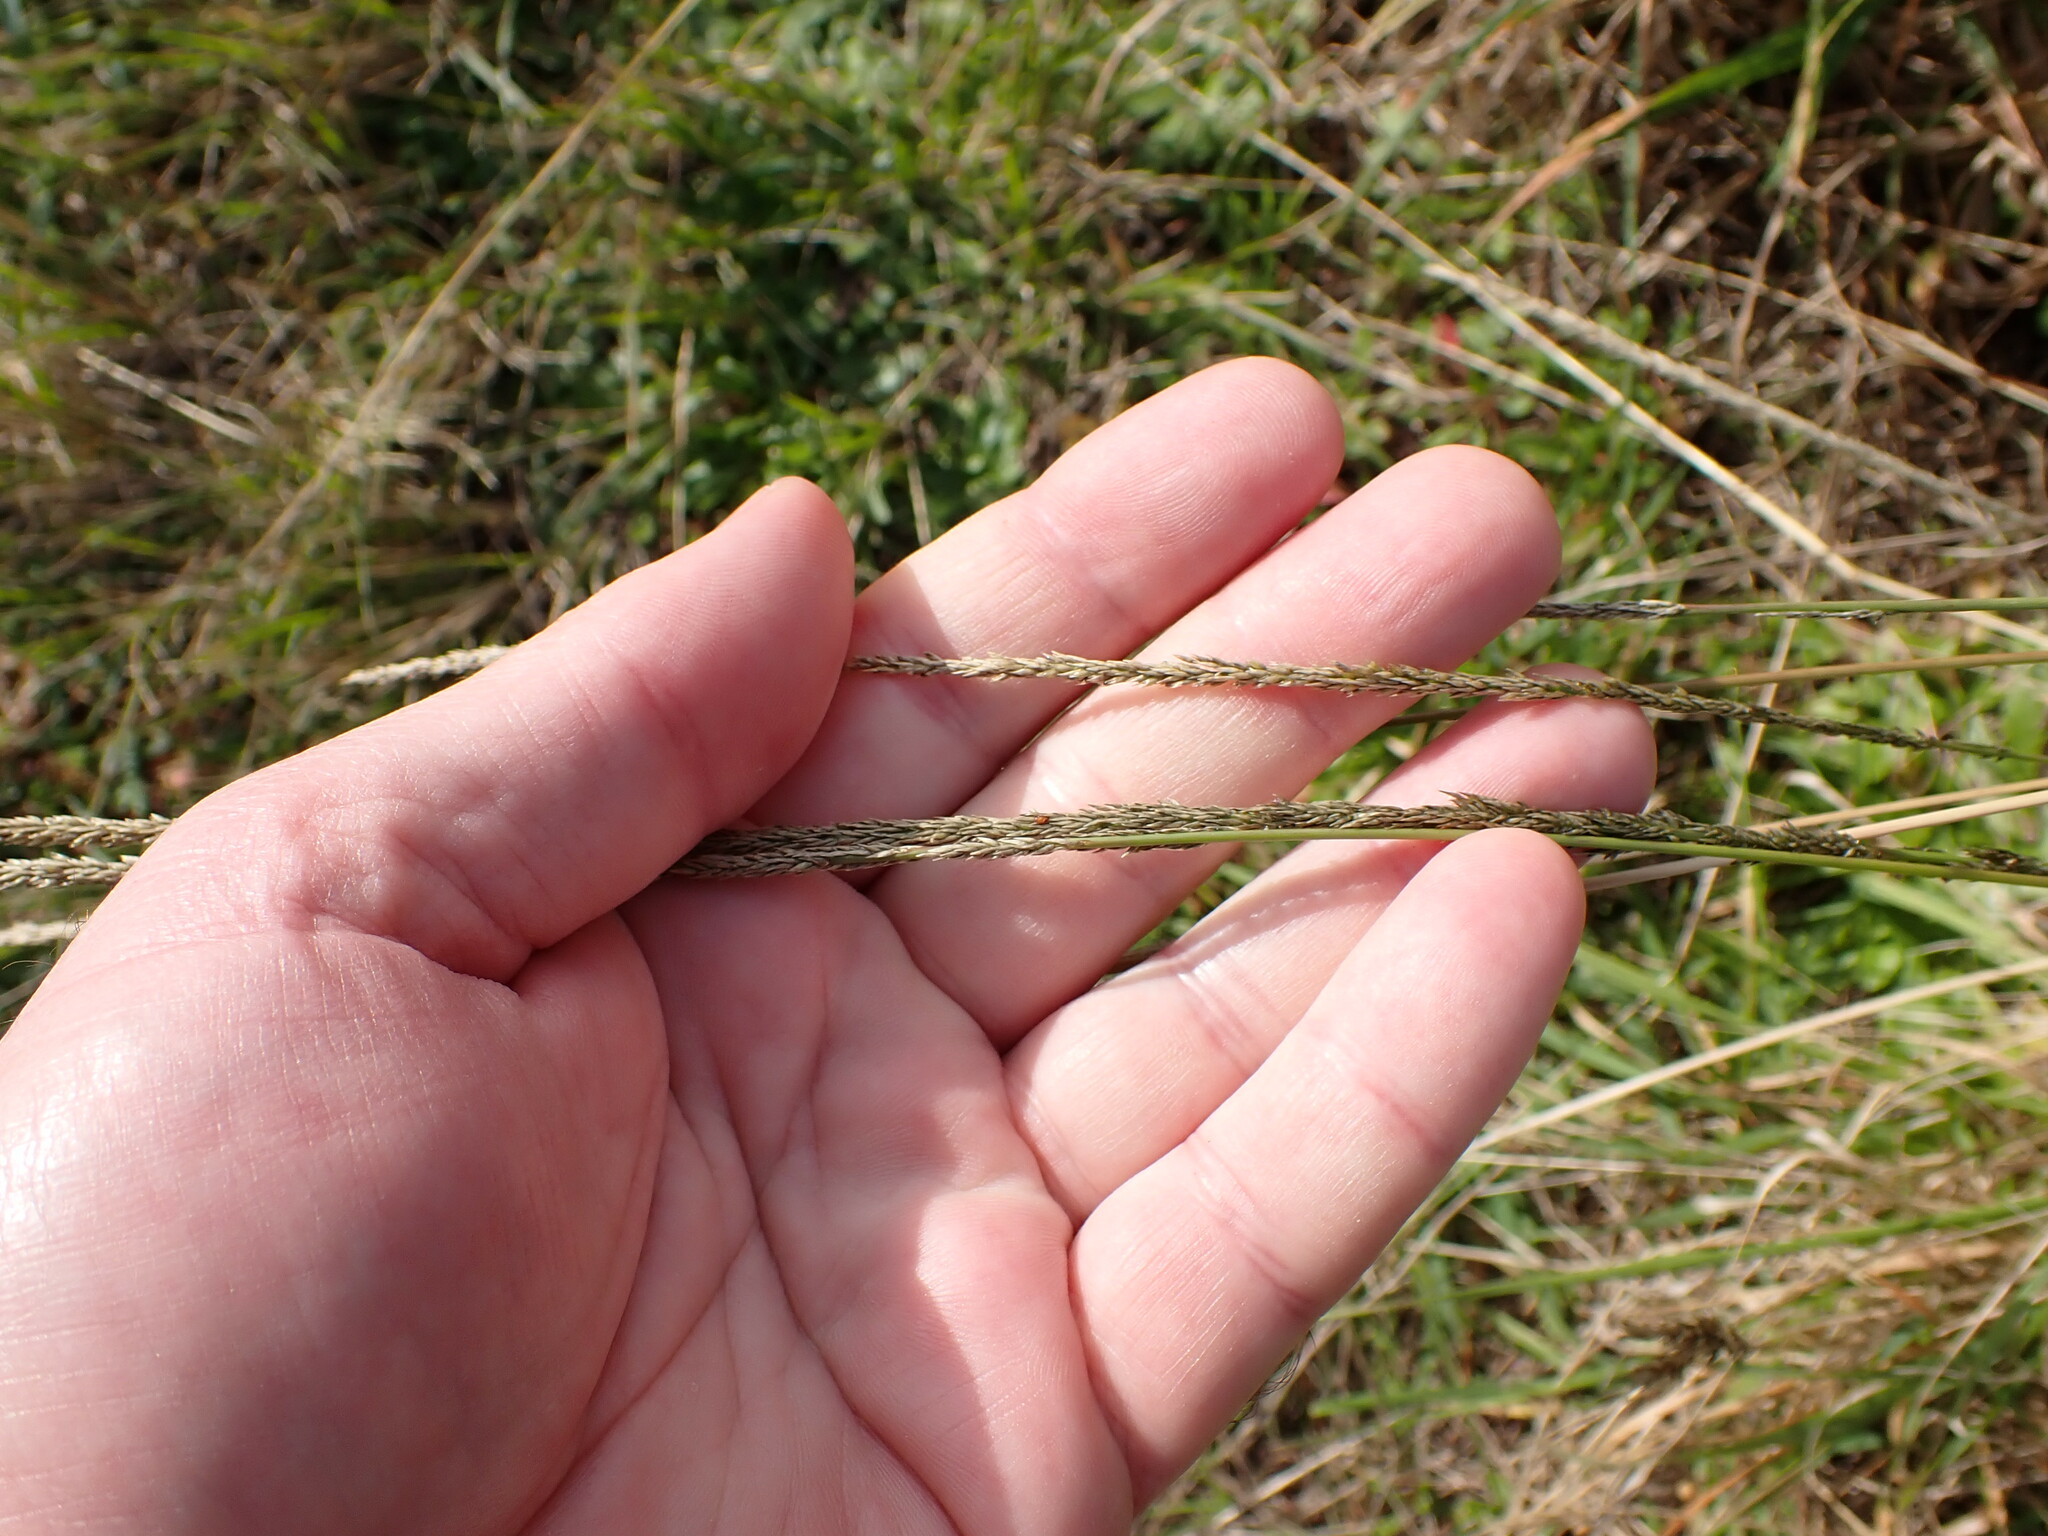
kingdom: Plantae
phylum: Tracheophyta
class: Liliopsida
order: Poales
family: Poaceae
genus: Sporobolus
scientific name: Sporobolus africanus
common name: African dropseed
